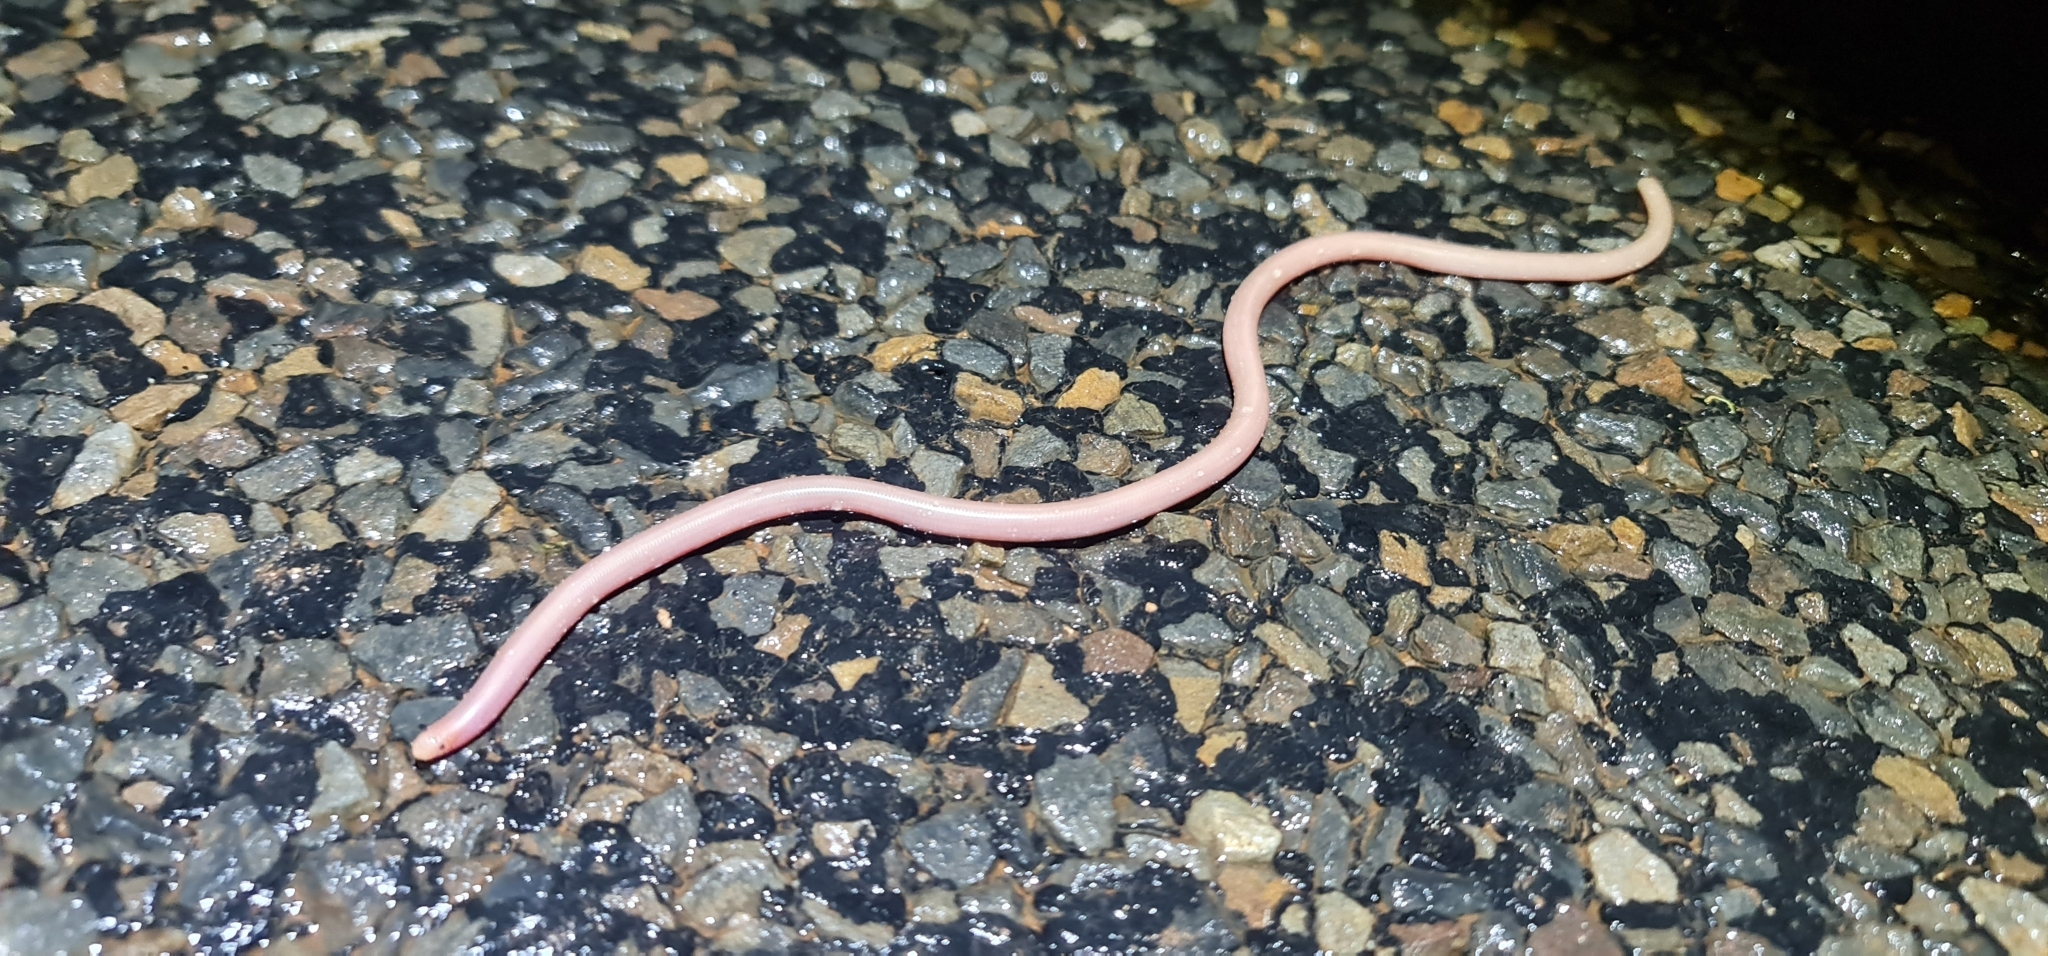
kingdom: Animalia
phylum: Chordata
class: Squamata
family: Typhlopidae
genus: Anilios
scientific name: Anilios bituberculatus
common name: Prong-snouted blind snake
